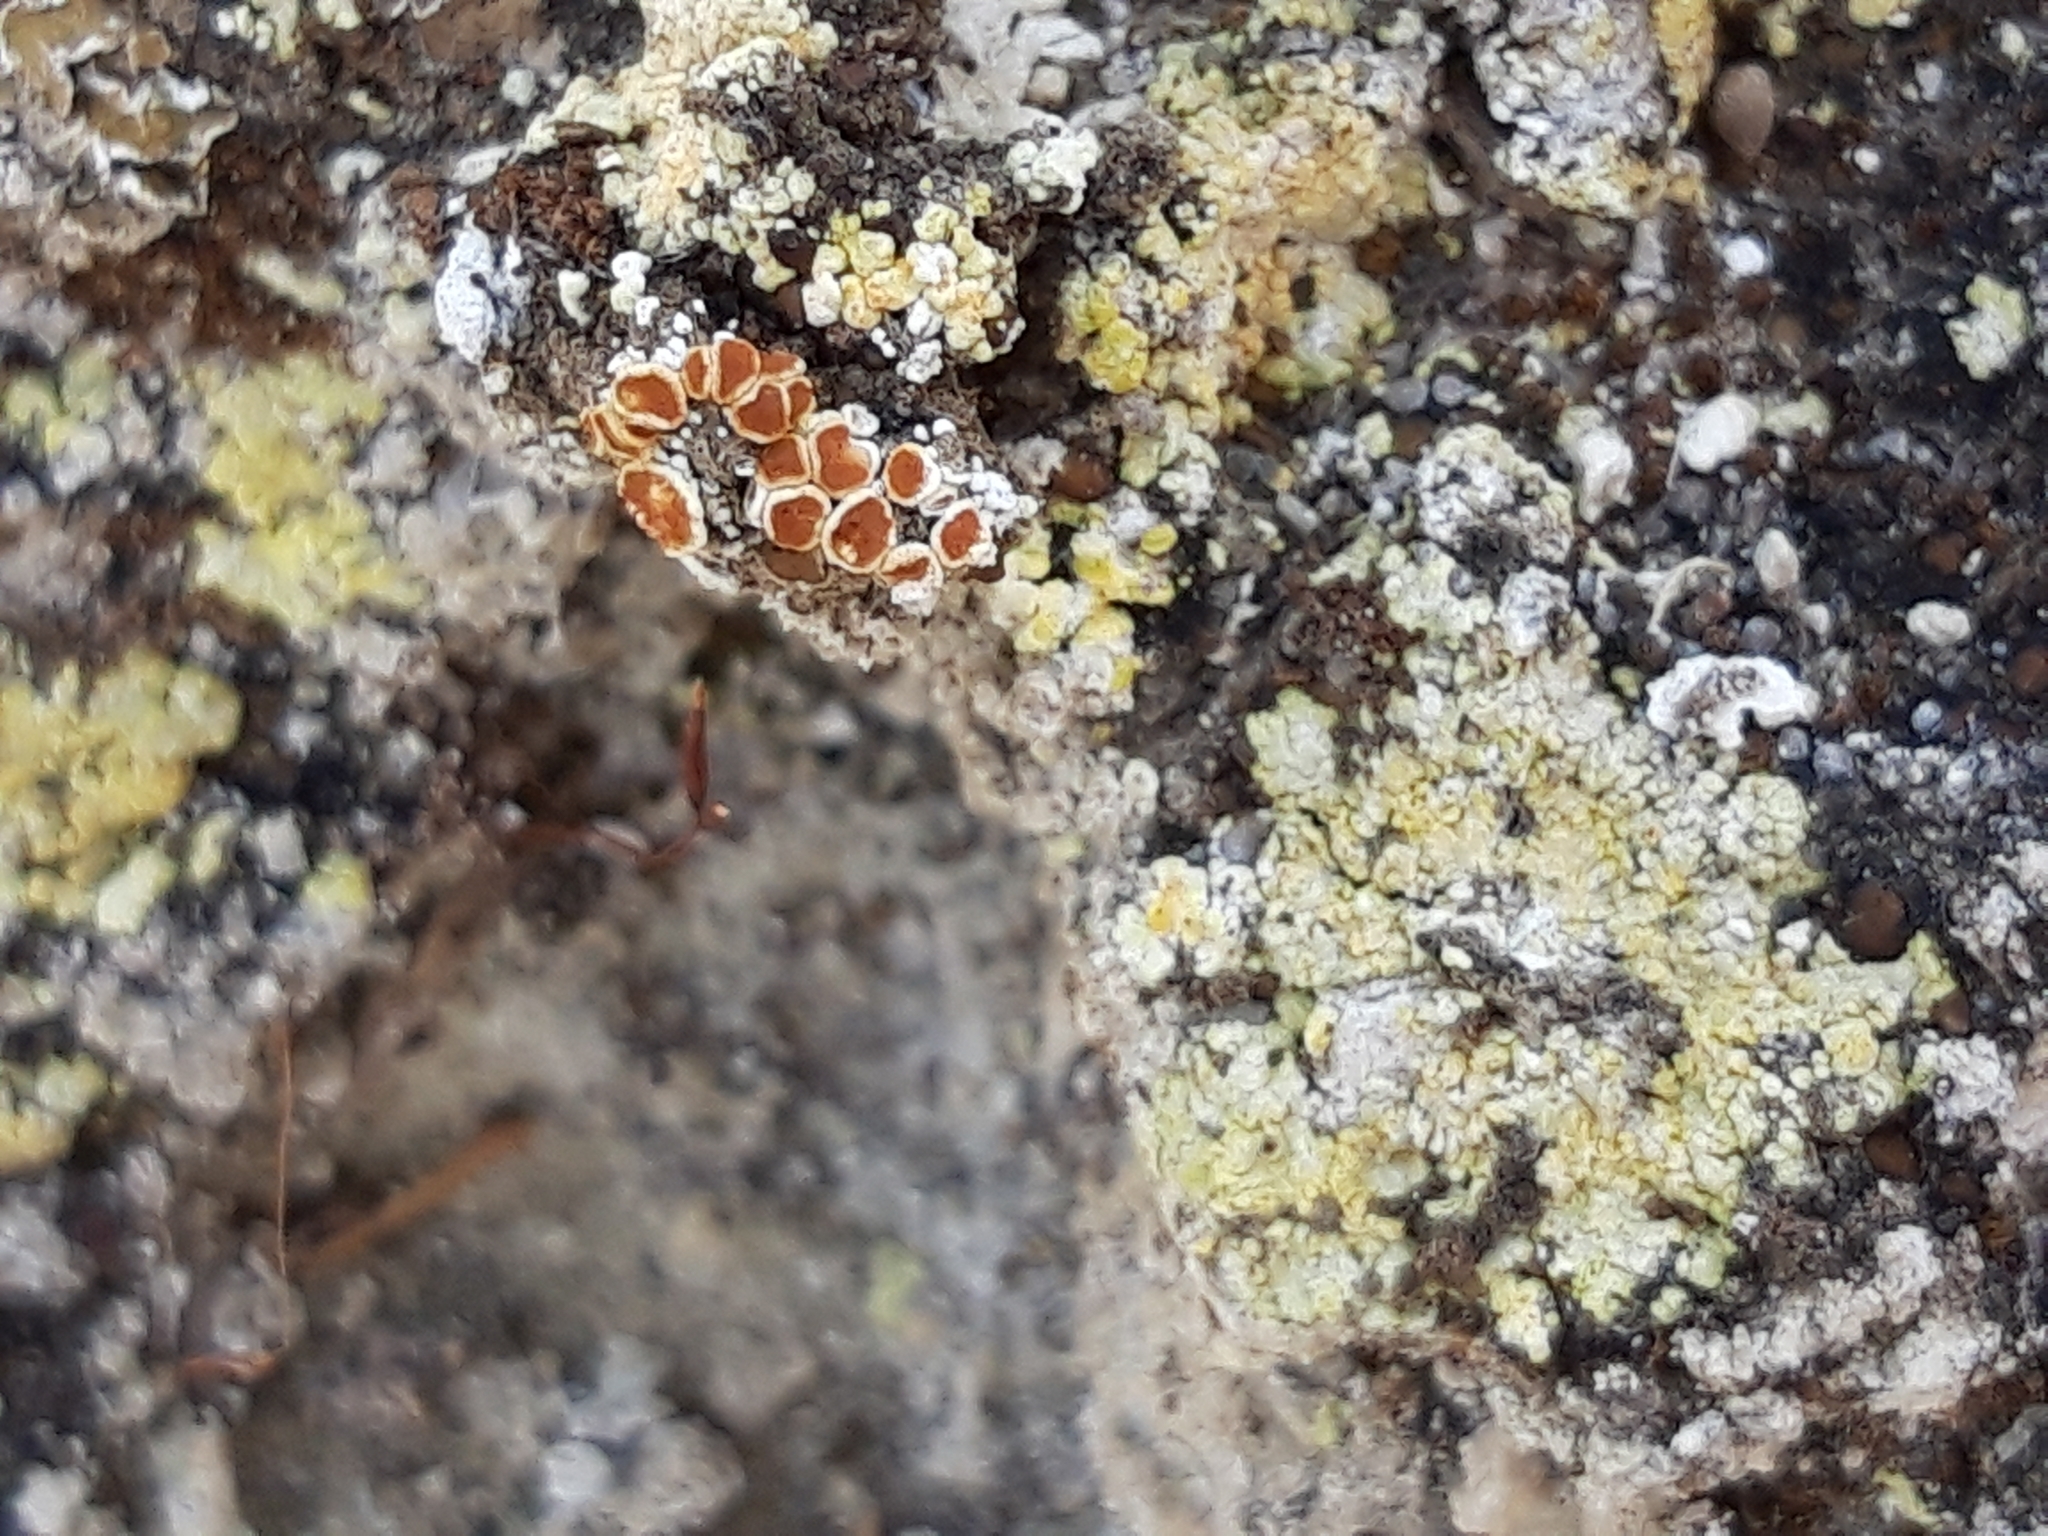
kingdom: Fungi
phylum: Ascomycota
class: Lecanoromycetes
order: Teloschistales
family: Teloschistaceae
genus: Gyalolechia
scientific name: Gyalolechia fulgens
